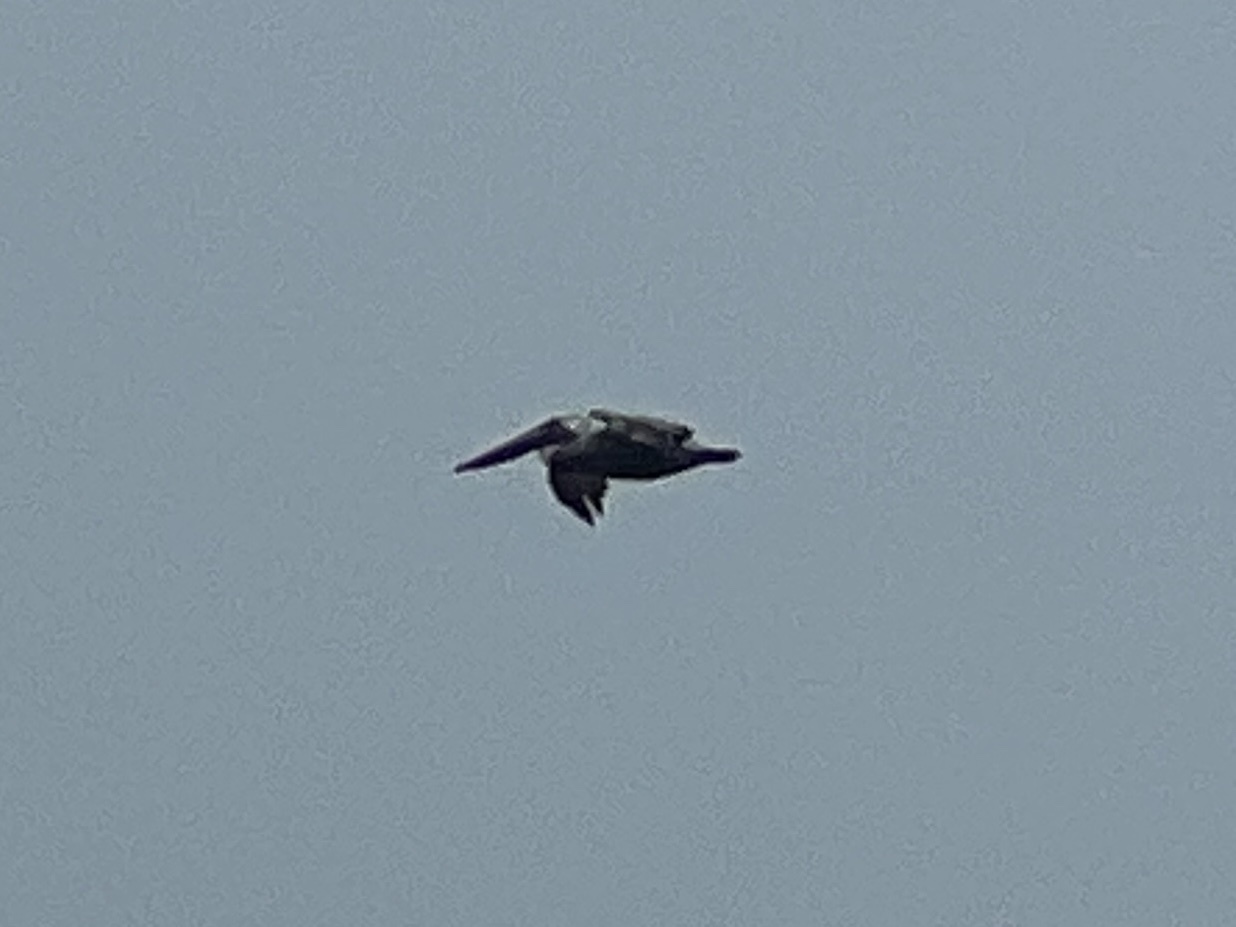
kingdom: Animalia
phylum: Chordata
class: Aves
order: Pelecaniformes
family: Pelecanidae
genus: Pelecanus
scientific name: Pelecanus occidentalis
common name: Brown pelican
